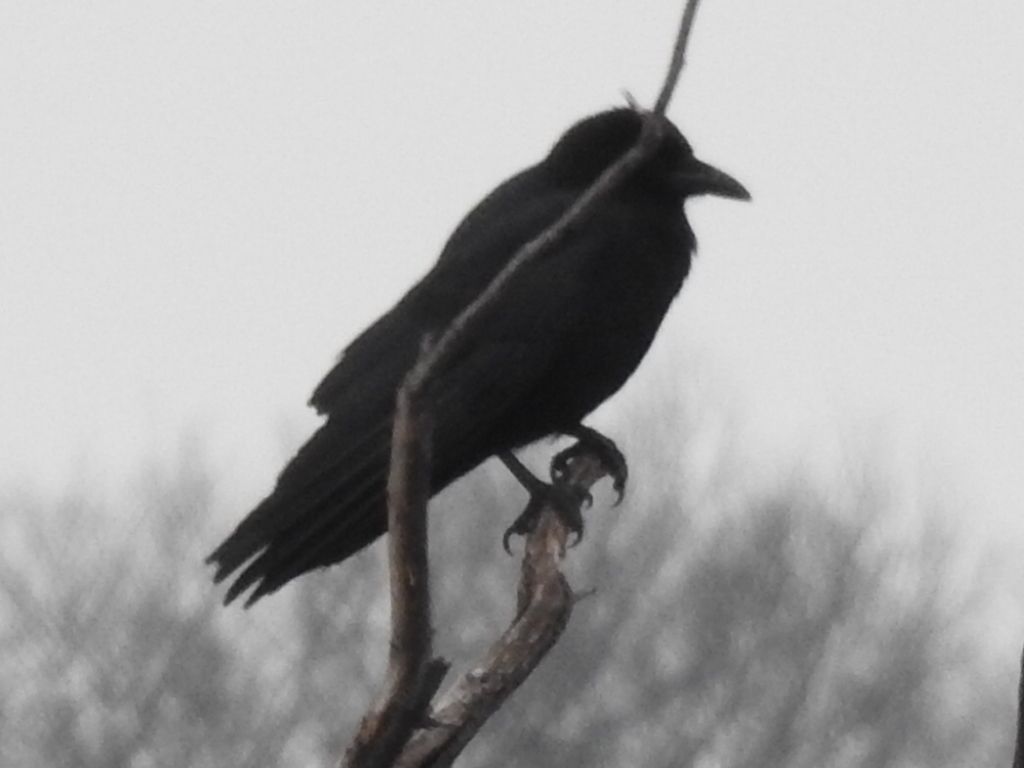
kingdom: Animalia
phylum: Chordata
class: Aves
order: Passeriformes
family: Corvidae
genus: Corvus
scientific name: Corvus brachyrhynchos
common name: American crow
